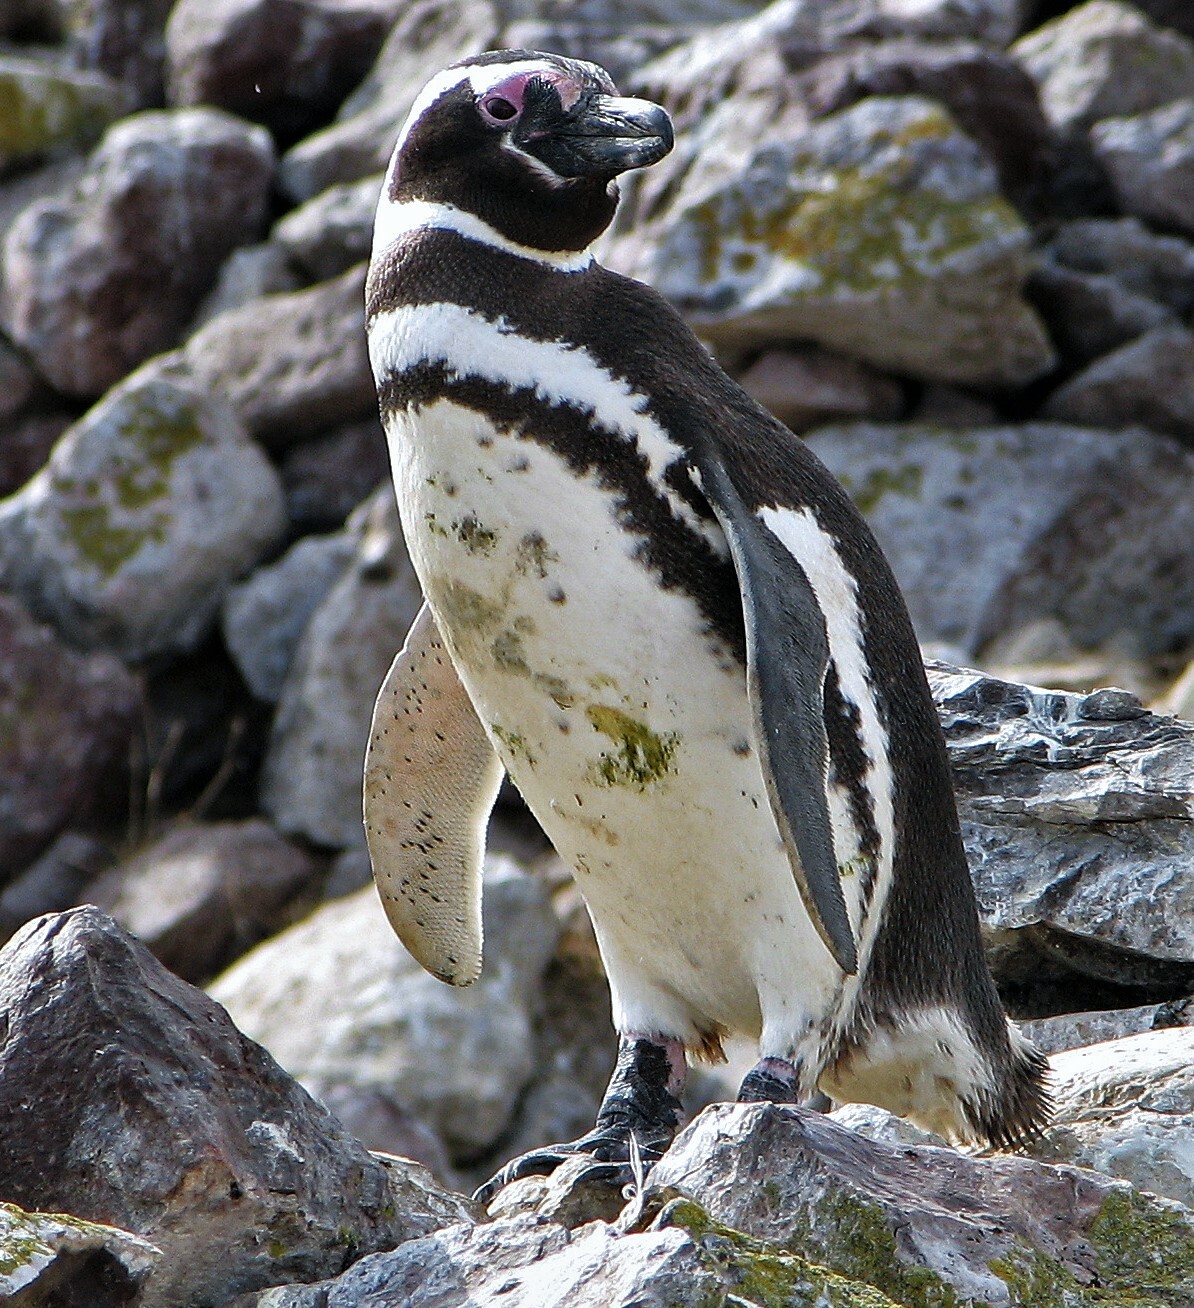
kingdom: Animalia
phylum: Chordata
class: Aves
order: Sphenisciformes
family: Spheniscidae
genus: Spheniscus
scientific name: Spheniscus magellanicus
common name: Magellanic penguin
